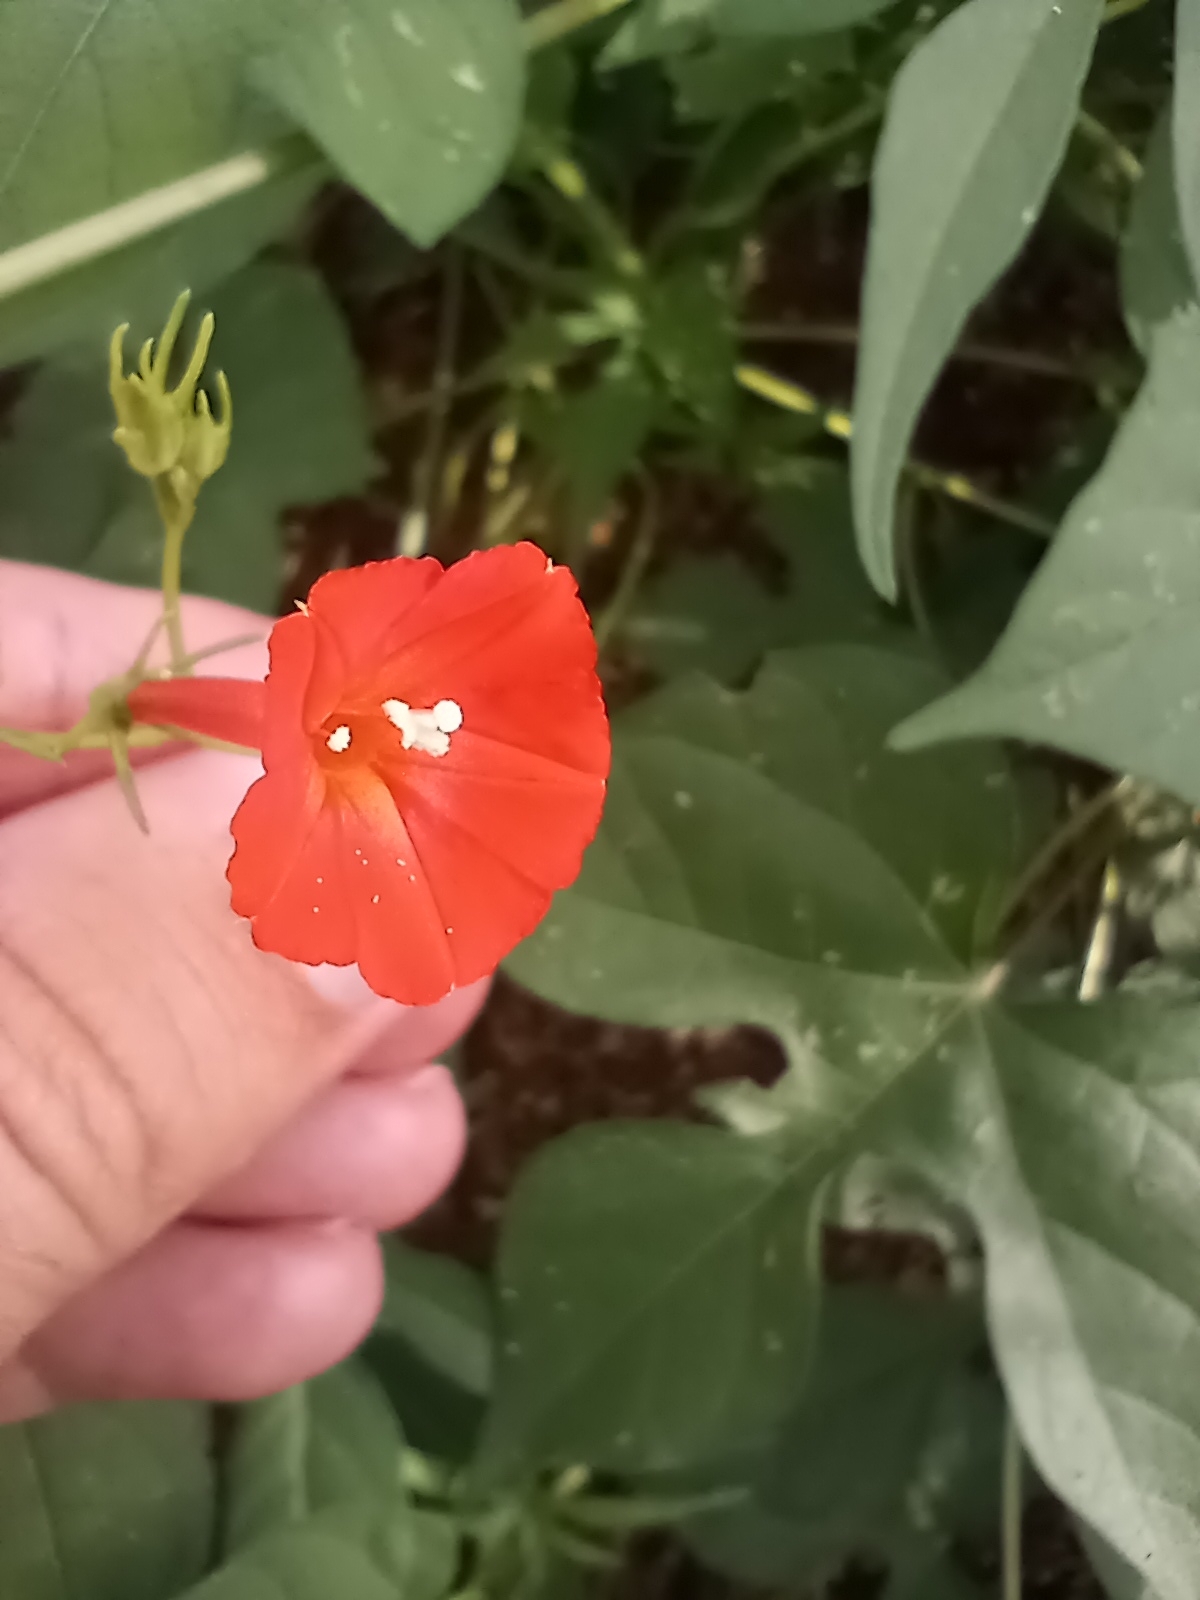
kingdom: Plantae
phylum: Tracheophyta
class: Magnoliopsida
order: Solanales
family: Convolvulaceae
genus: Ipomoea
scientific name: Ipomoea cristulata
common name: Trans-pecos morning-glory
